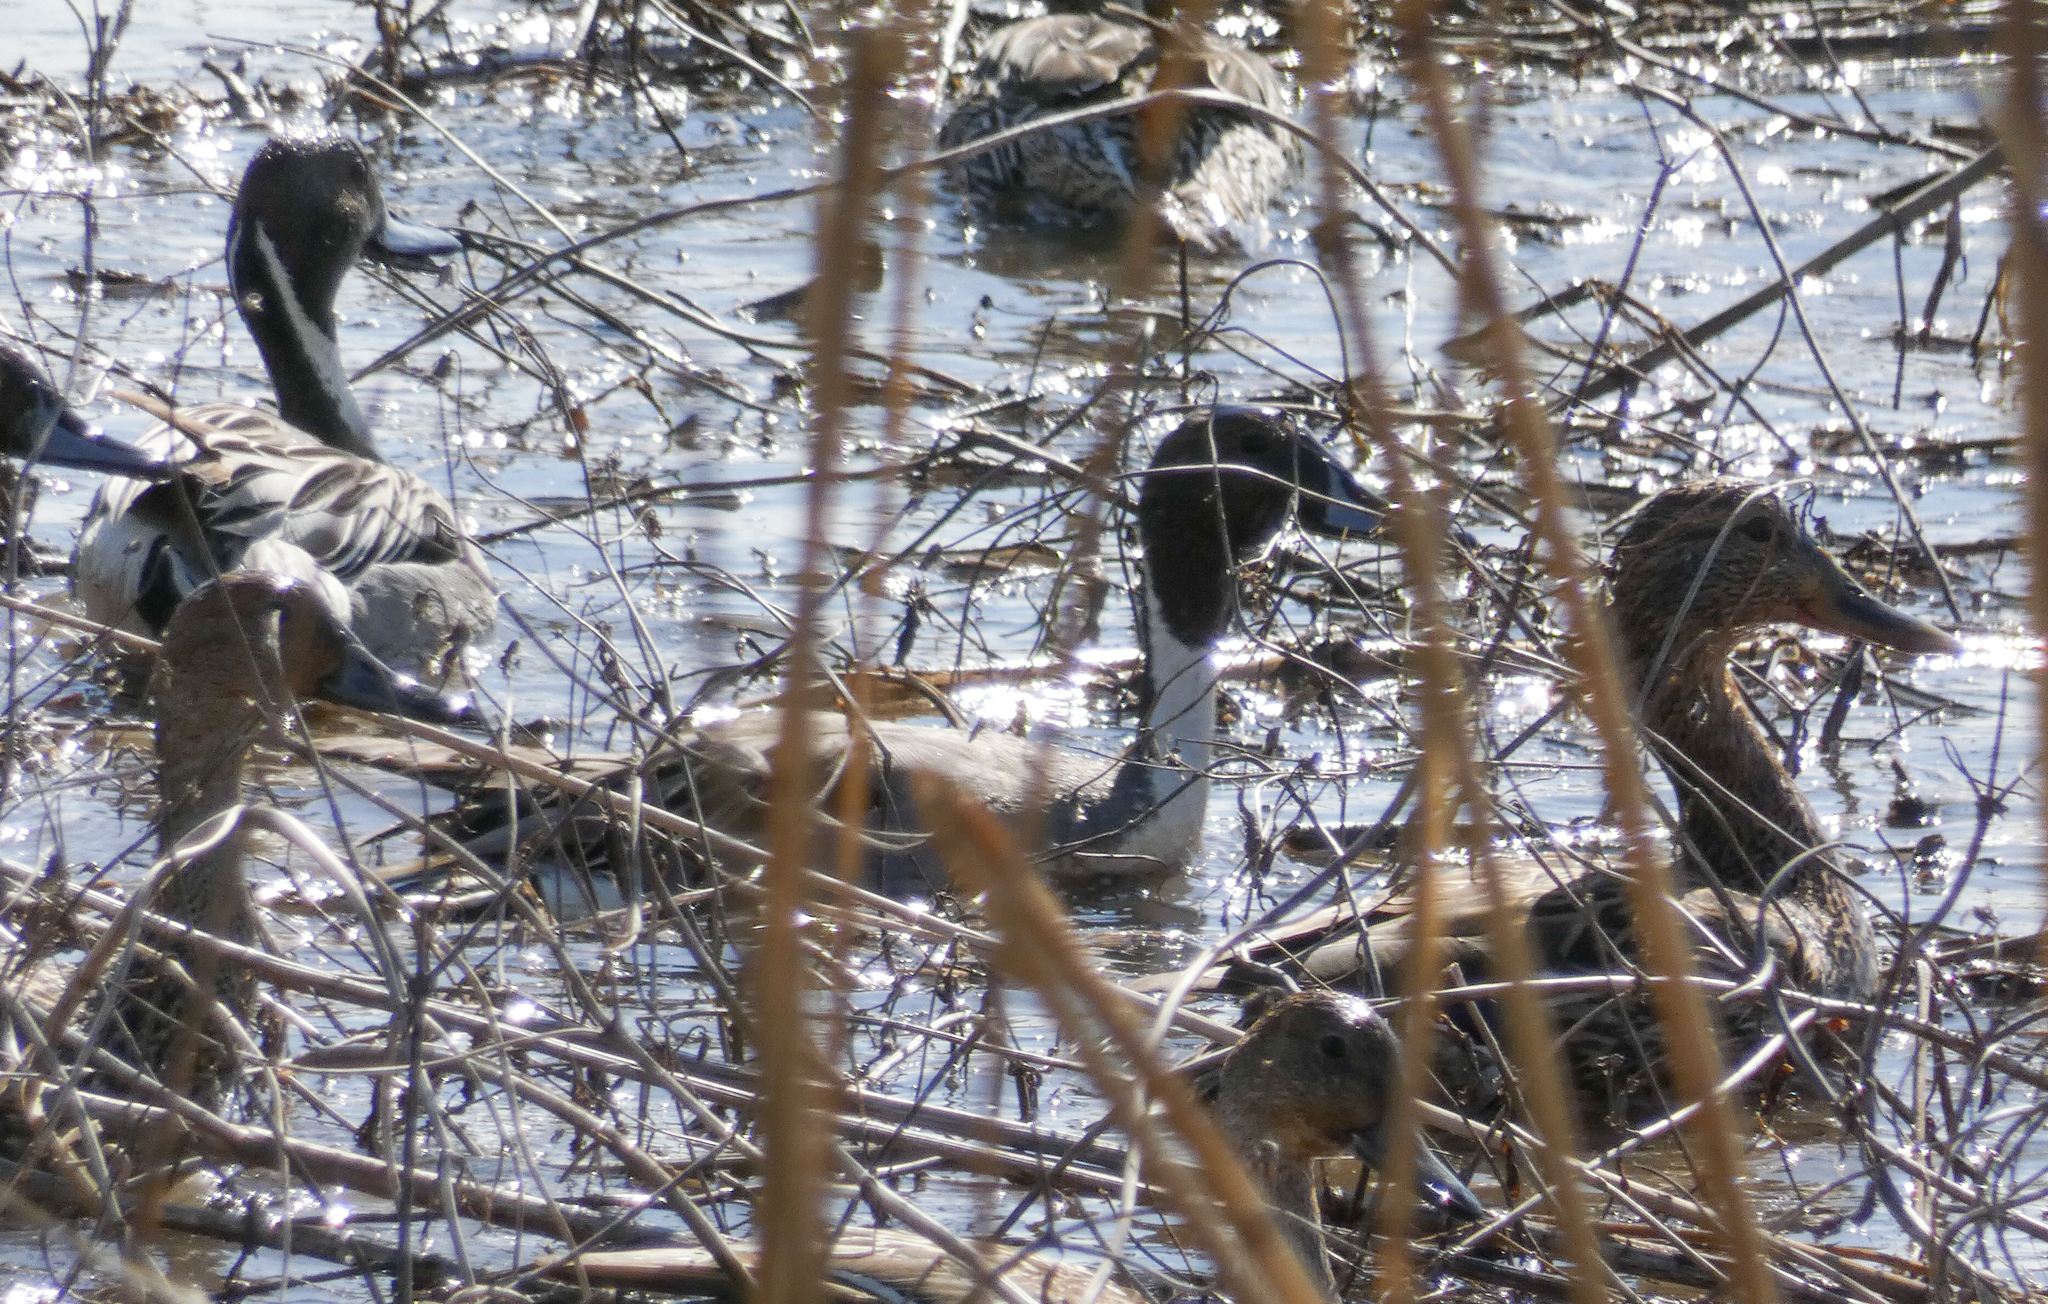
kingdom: Animalia
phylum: Chordata
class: Aves
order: Anseriformes
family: Anatidae
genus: Anas
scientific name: Anas acuta
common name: Northern pintail
